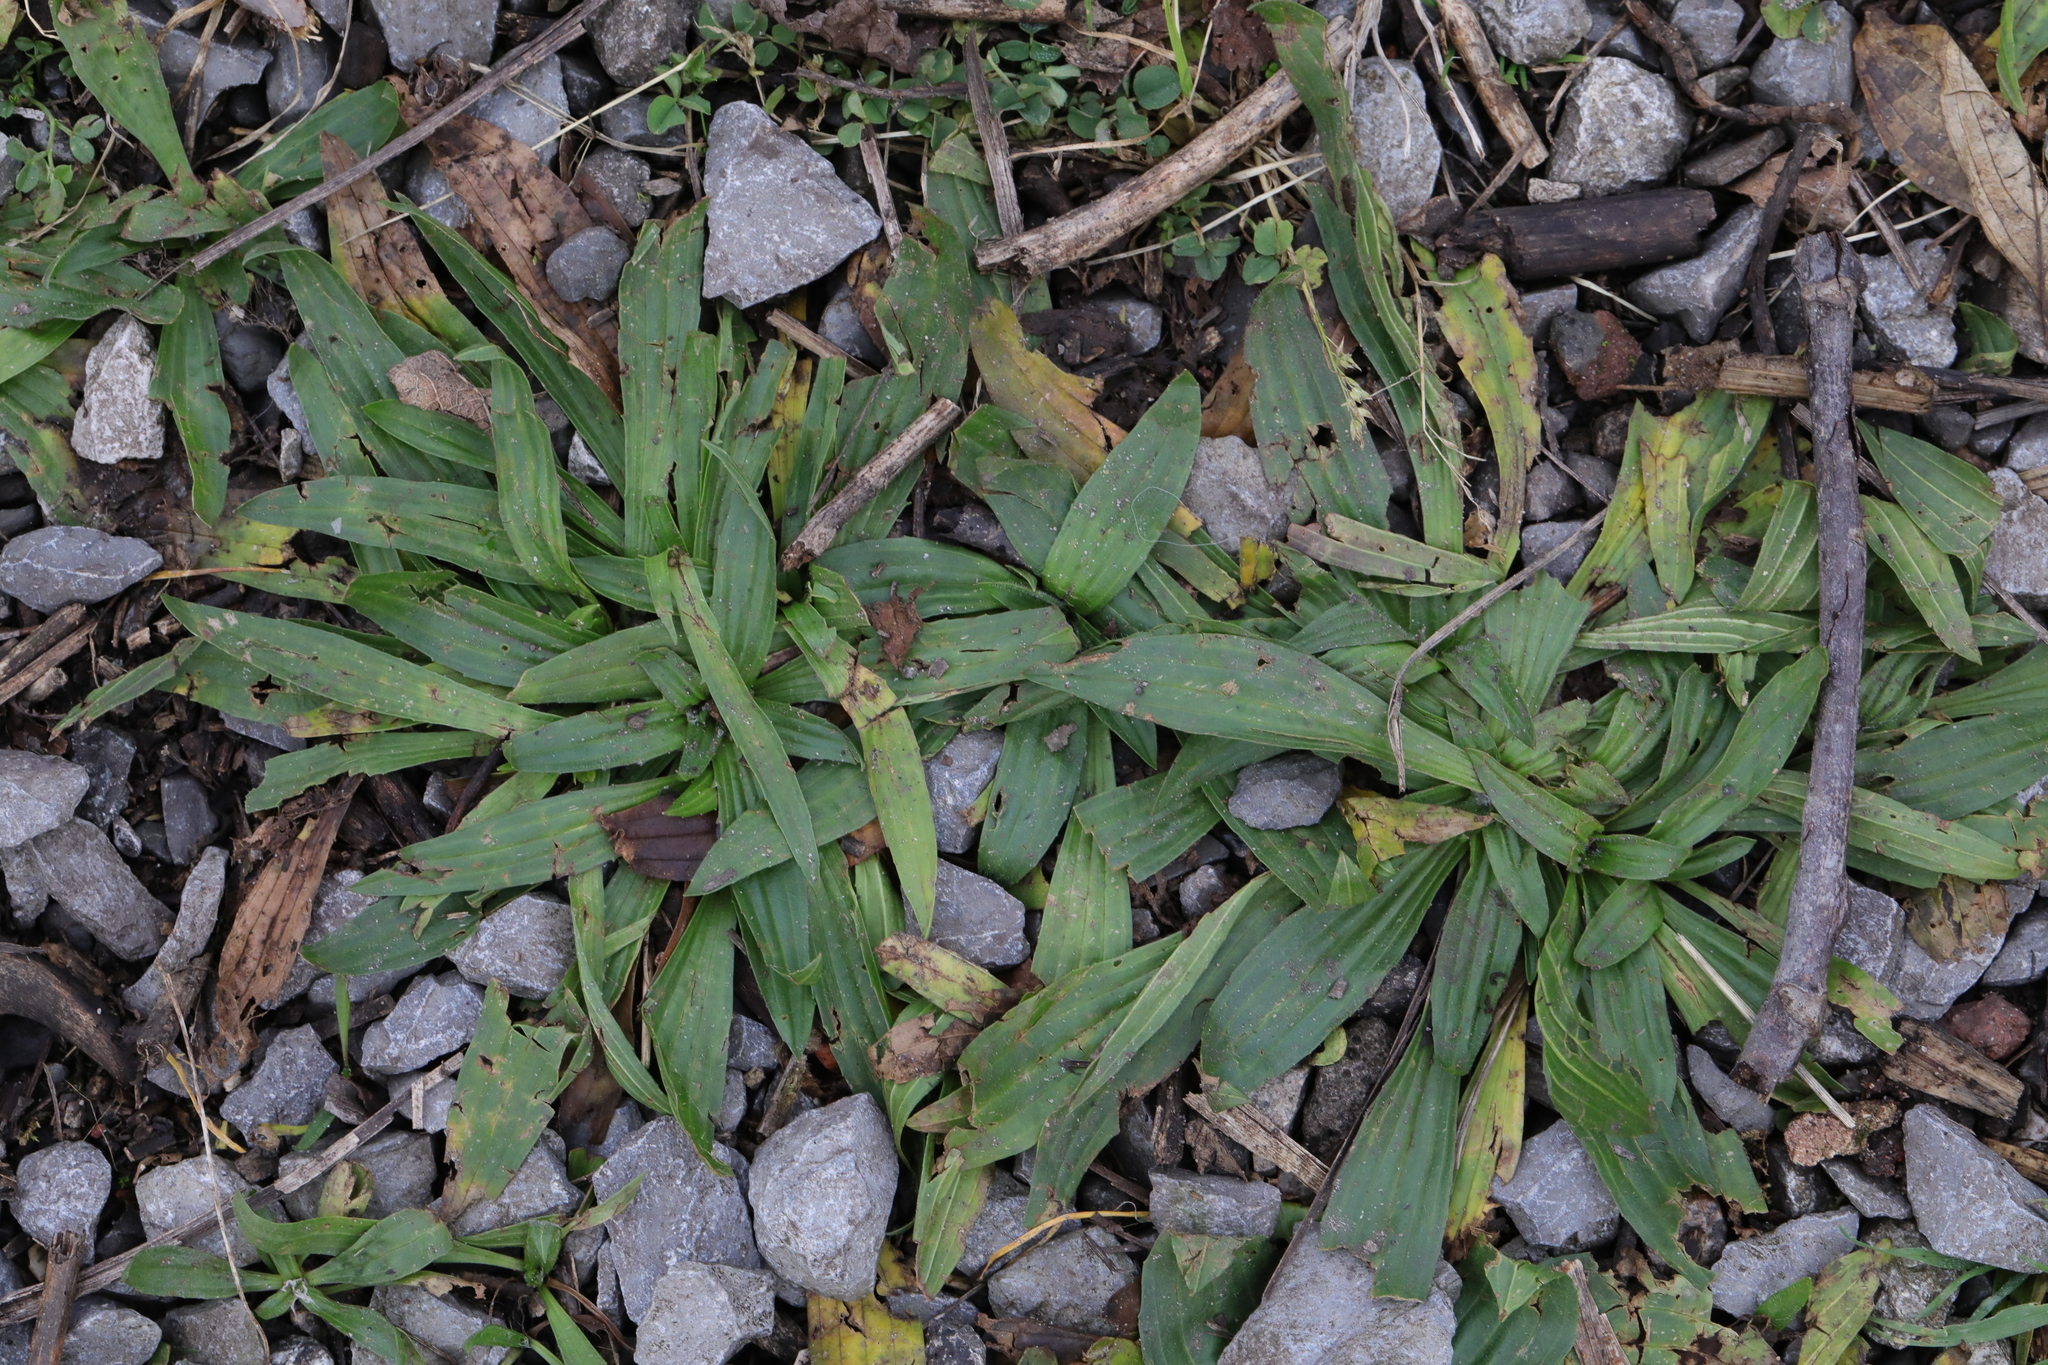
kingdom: Plantae
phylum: Tracheophyta
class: Magnoliopsida
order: Lamiales
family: Plantaginaceae
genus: Plantago
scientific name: Plantago lanceolata
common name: Ribwort plantain
